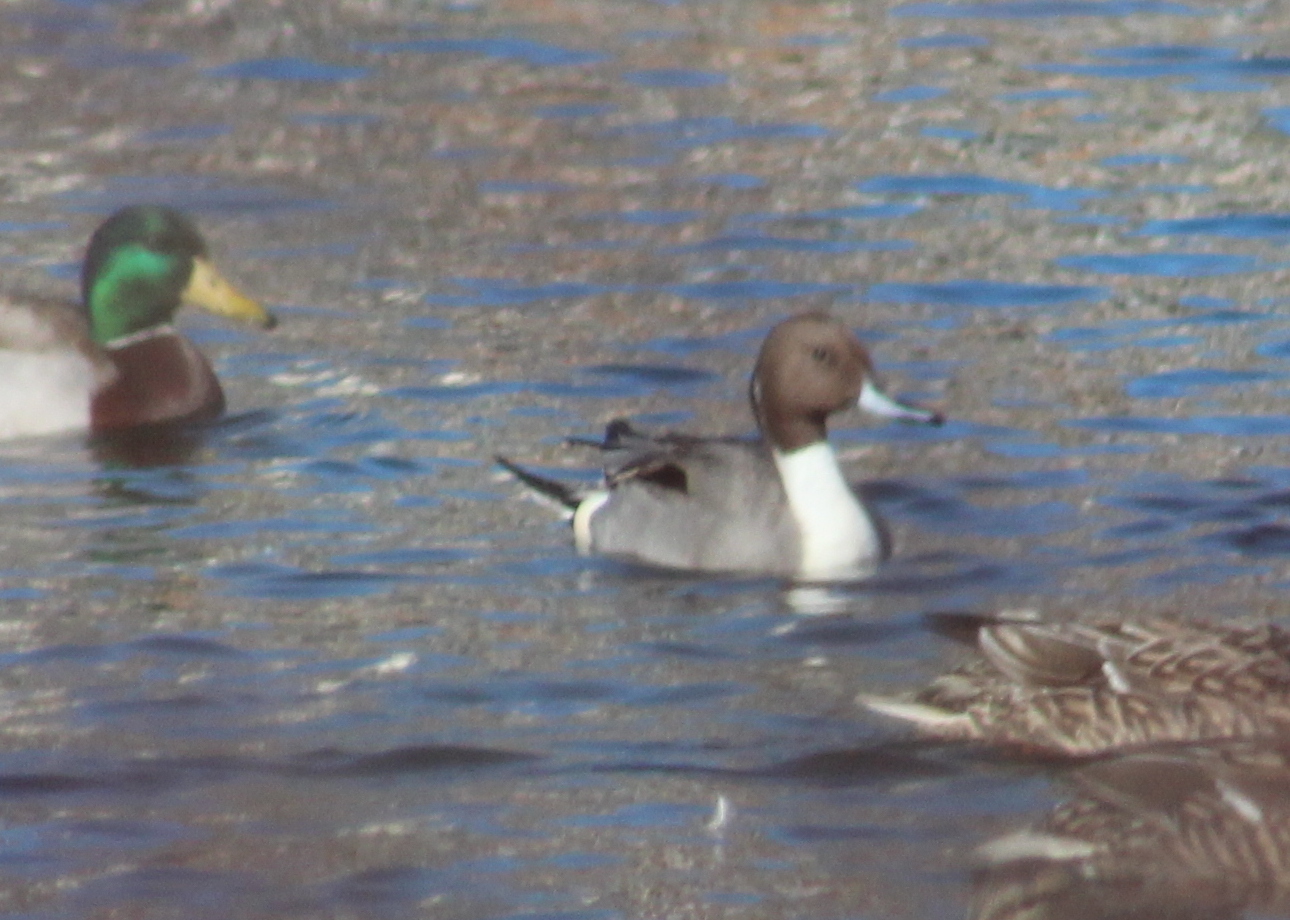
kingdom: Animalia
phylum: Chordata
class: Aves
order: Anseriformes
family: Anatidae
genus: Anas
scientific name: Anas acuta
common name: Northern pintail
